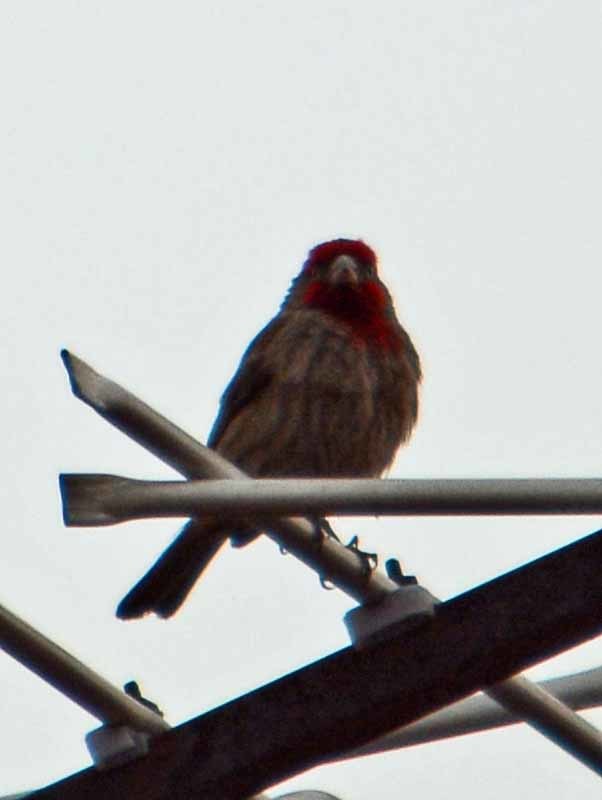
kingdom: Animalia
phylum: Chordata
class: Aves
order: Passeriformes
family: Fringillidae
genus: Haemorhous
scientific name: Haemorhous mexicanus
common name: House finch
